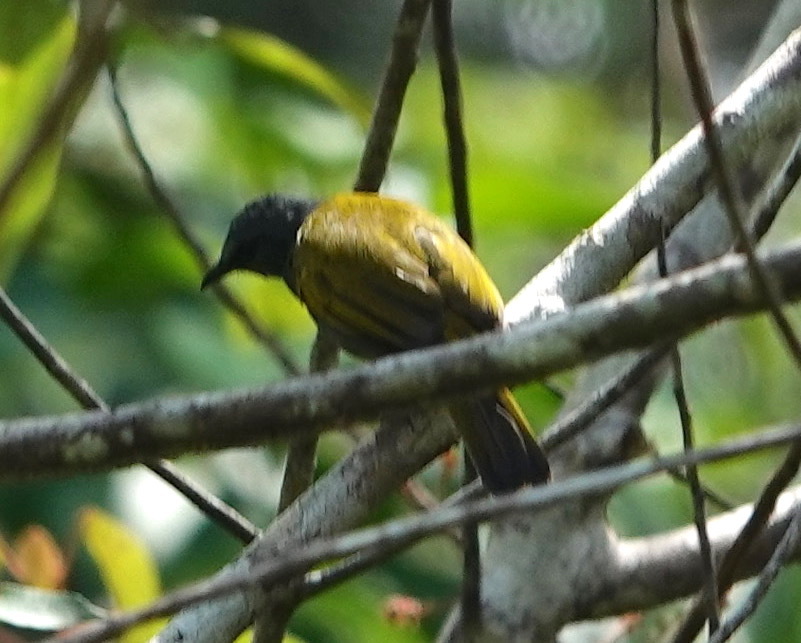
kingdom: Animalia
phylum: Chordata
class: Aves
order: Passeriformes
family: Pycnonotidae
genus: Rubigula
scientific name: Rubigula cyaniventris
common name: Gray-bellied bulbul
